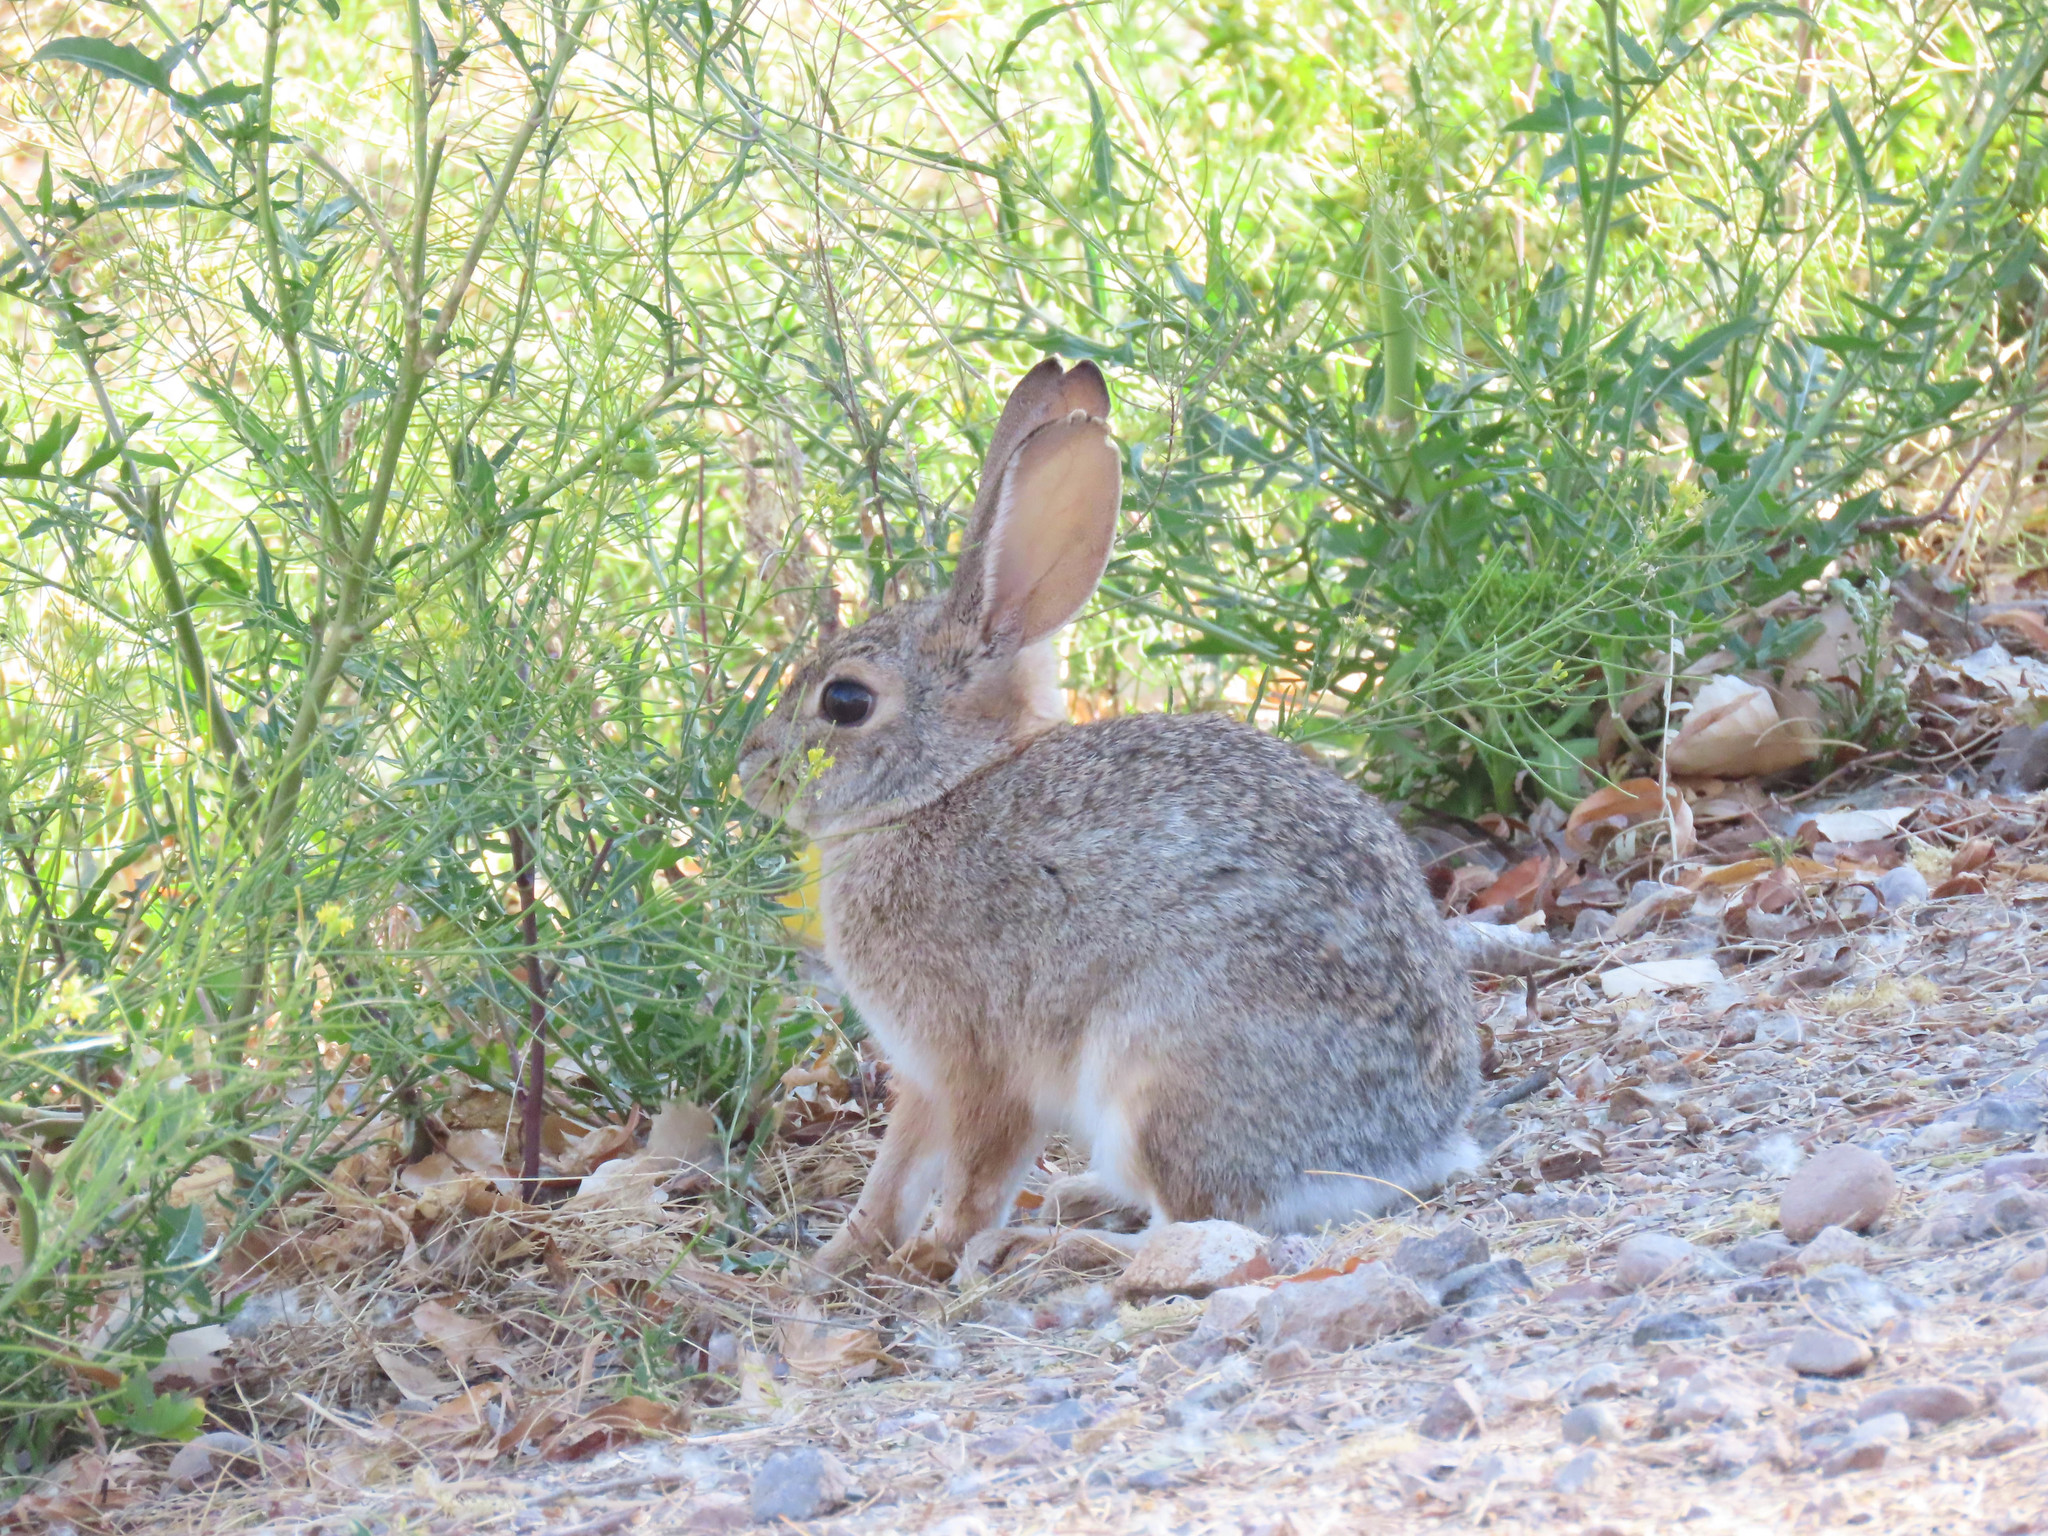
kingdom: Animalia
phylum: Chordata
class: Mammalia
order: Lagomorpha
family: Leporidae
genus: Sylvilagus
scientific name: Sylvilagus audubonii
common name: Desert cottontail
